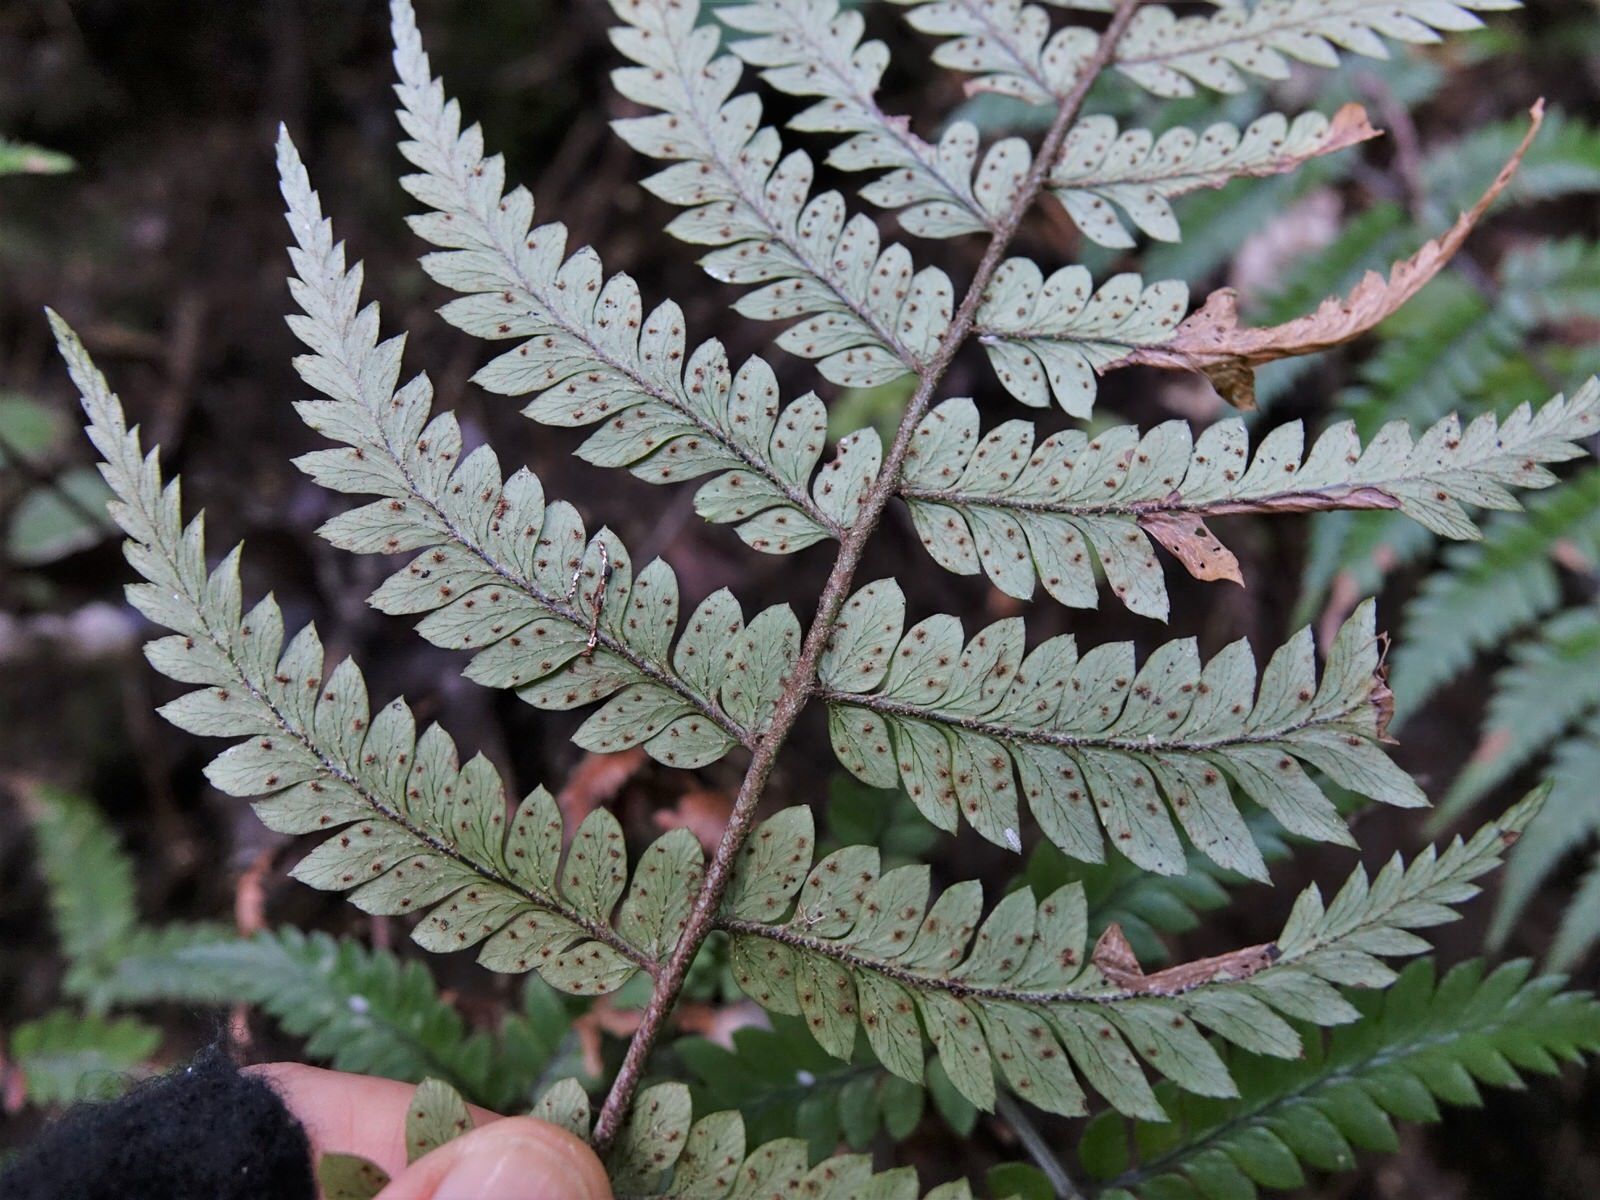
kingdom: Plantae
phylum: Tracheophyta
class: Polypodiopsida
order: Polypodiales
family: Dryopteridaceae
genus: Polystichum
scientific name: Polystichum wawranum
